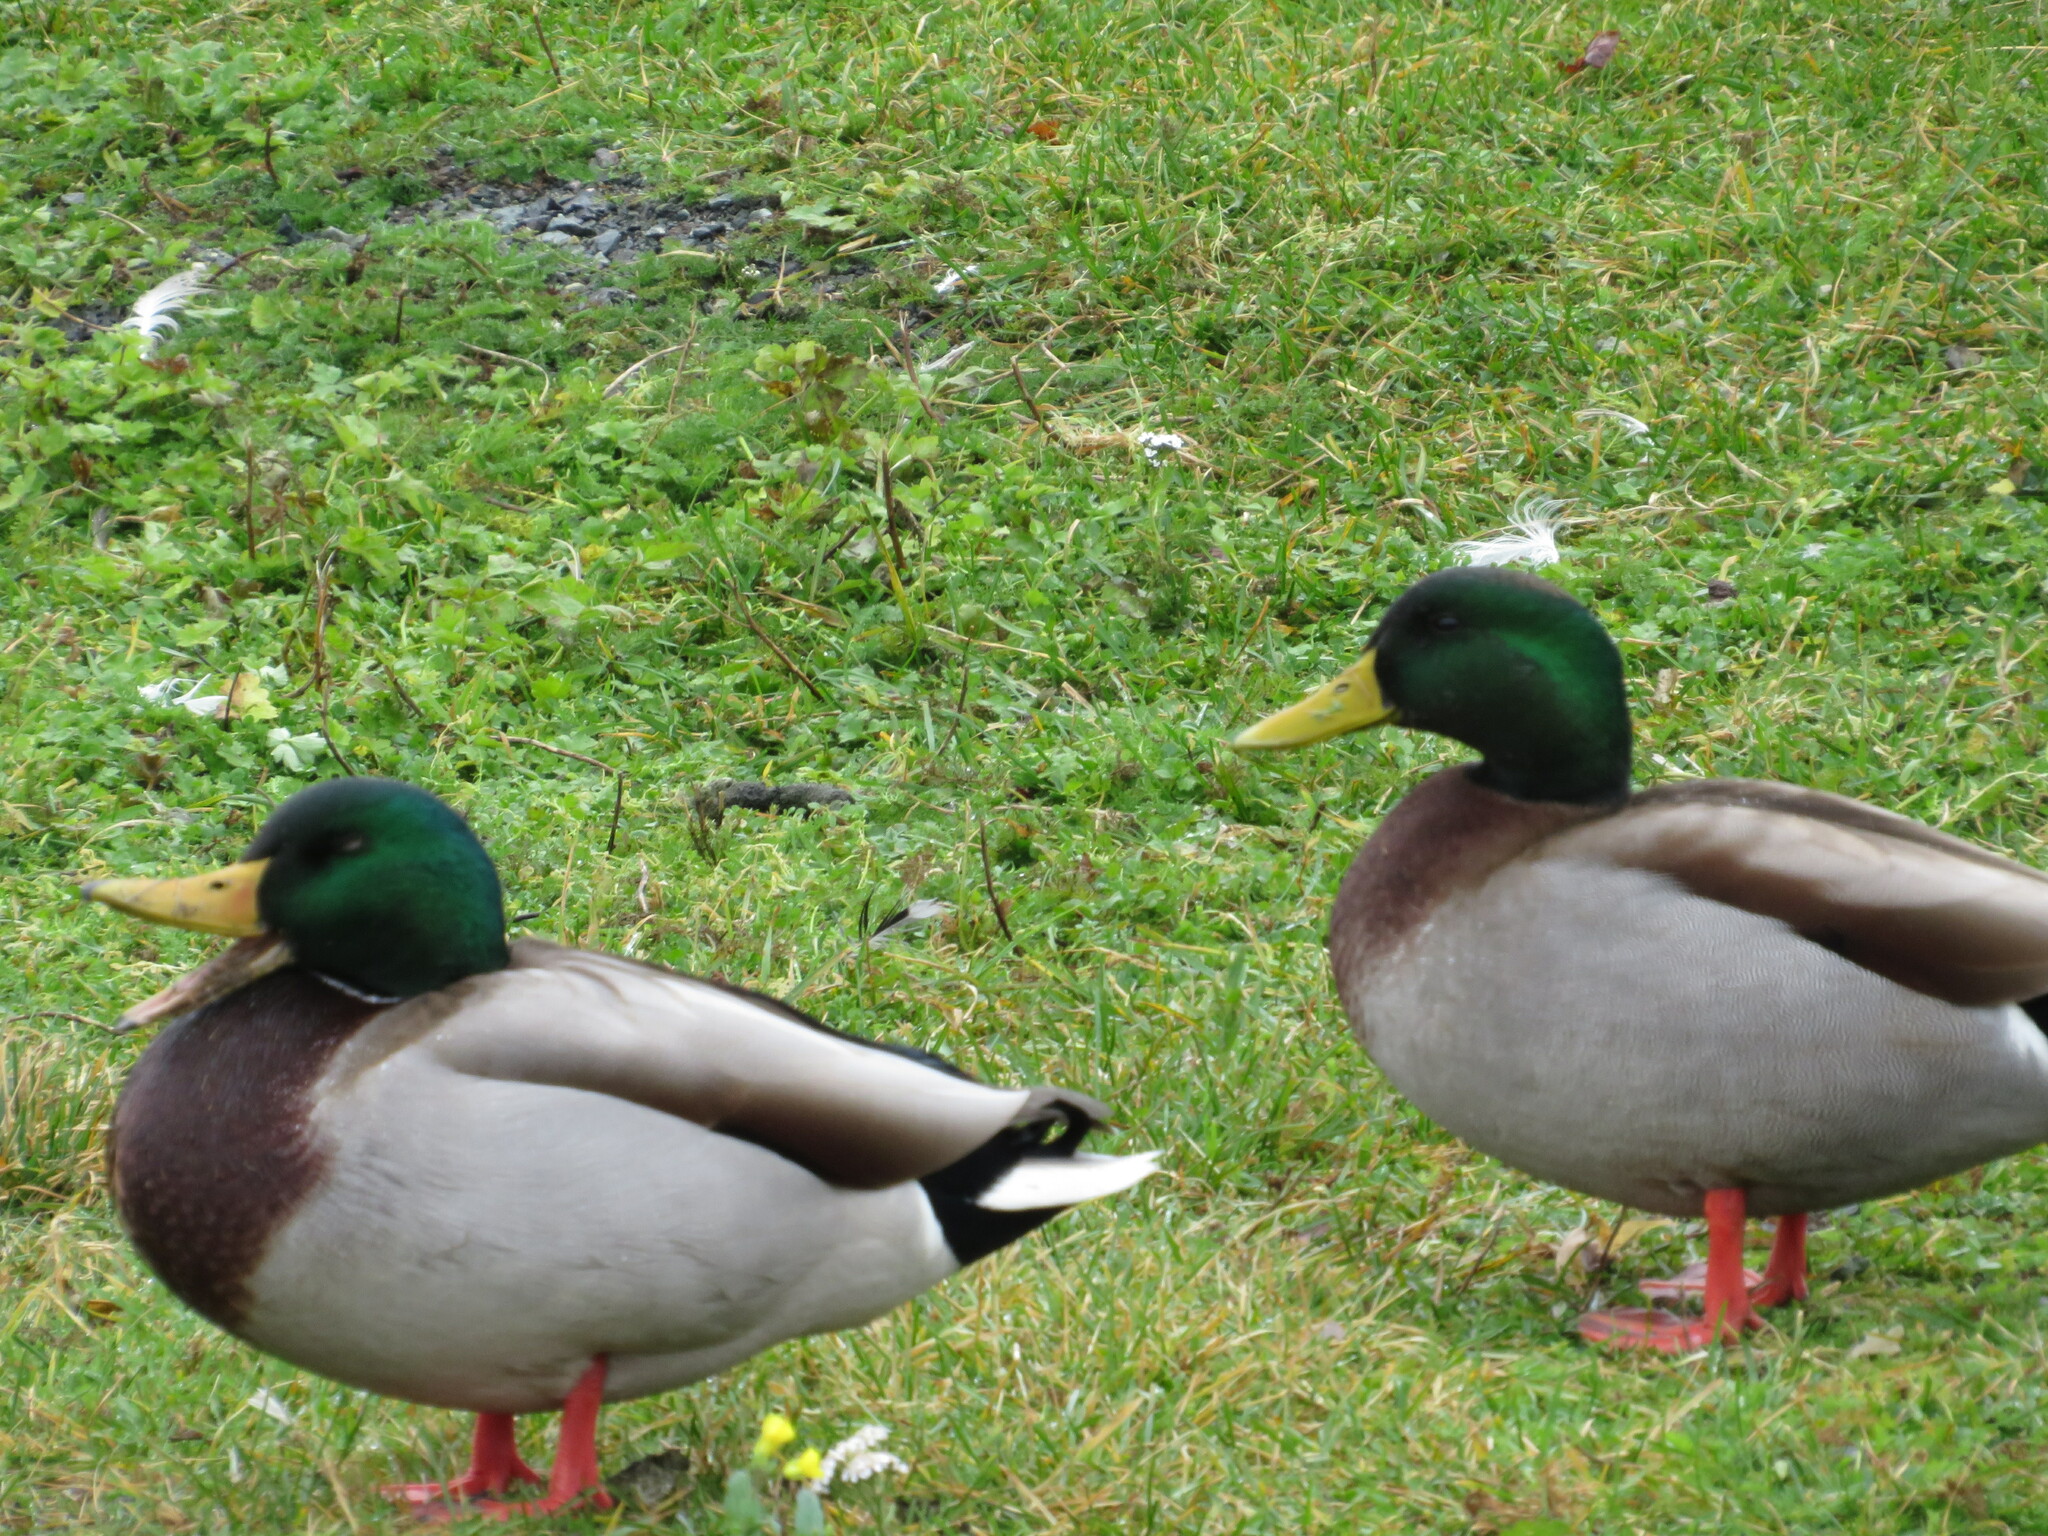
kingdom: Animalia
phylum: Chordata
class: Aves
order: Anseriformes
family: Anatidae
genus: Anas
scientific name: Anas platyrhynchos
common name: Mallard
